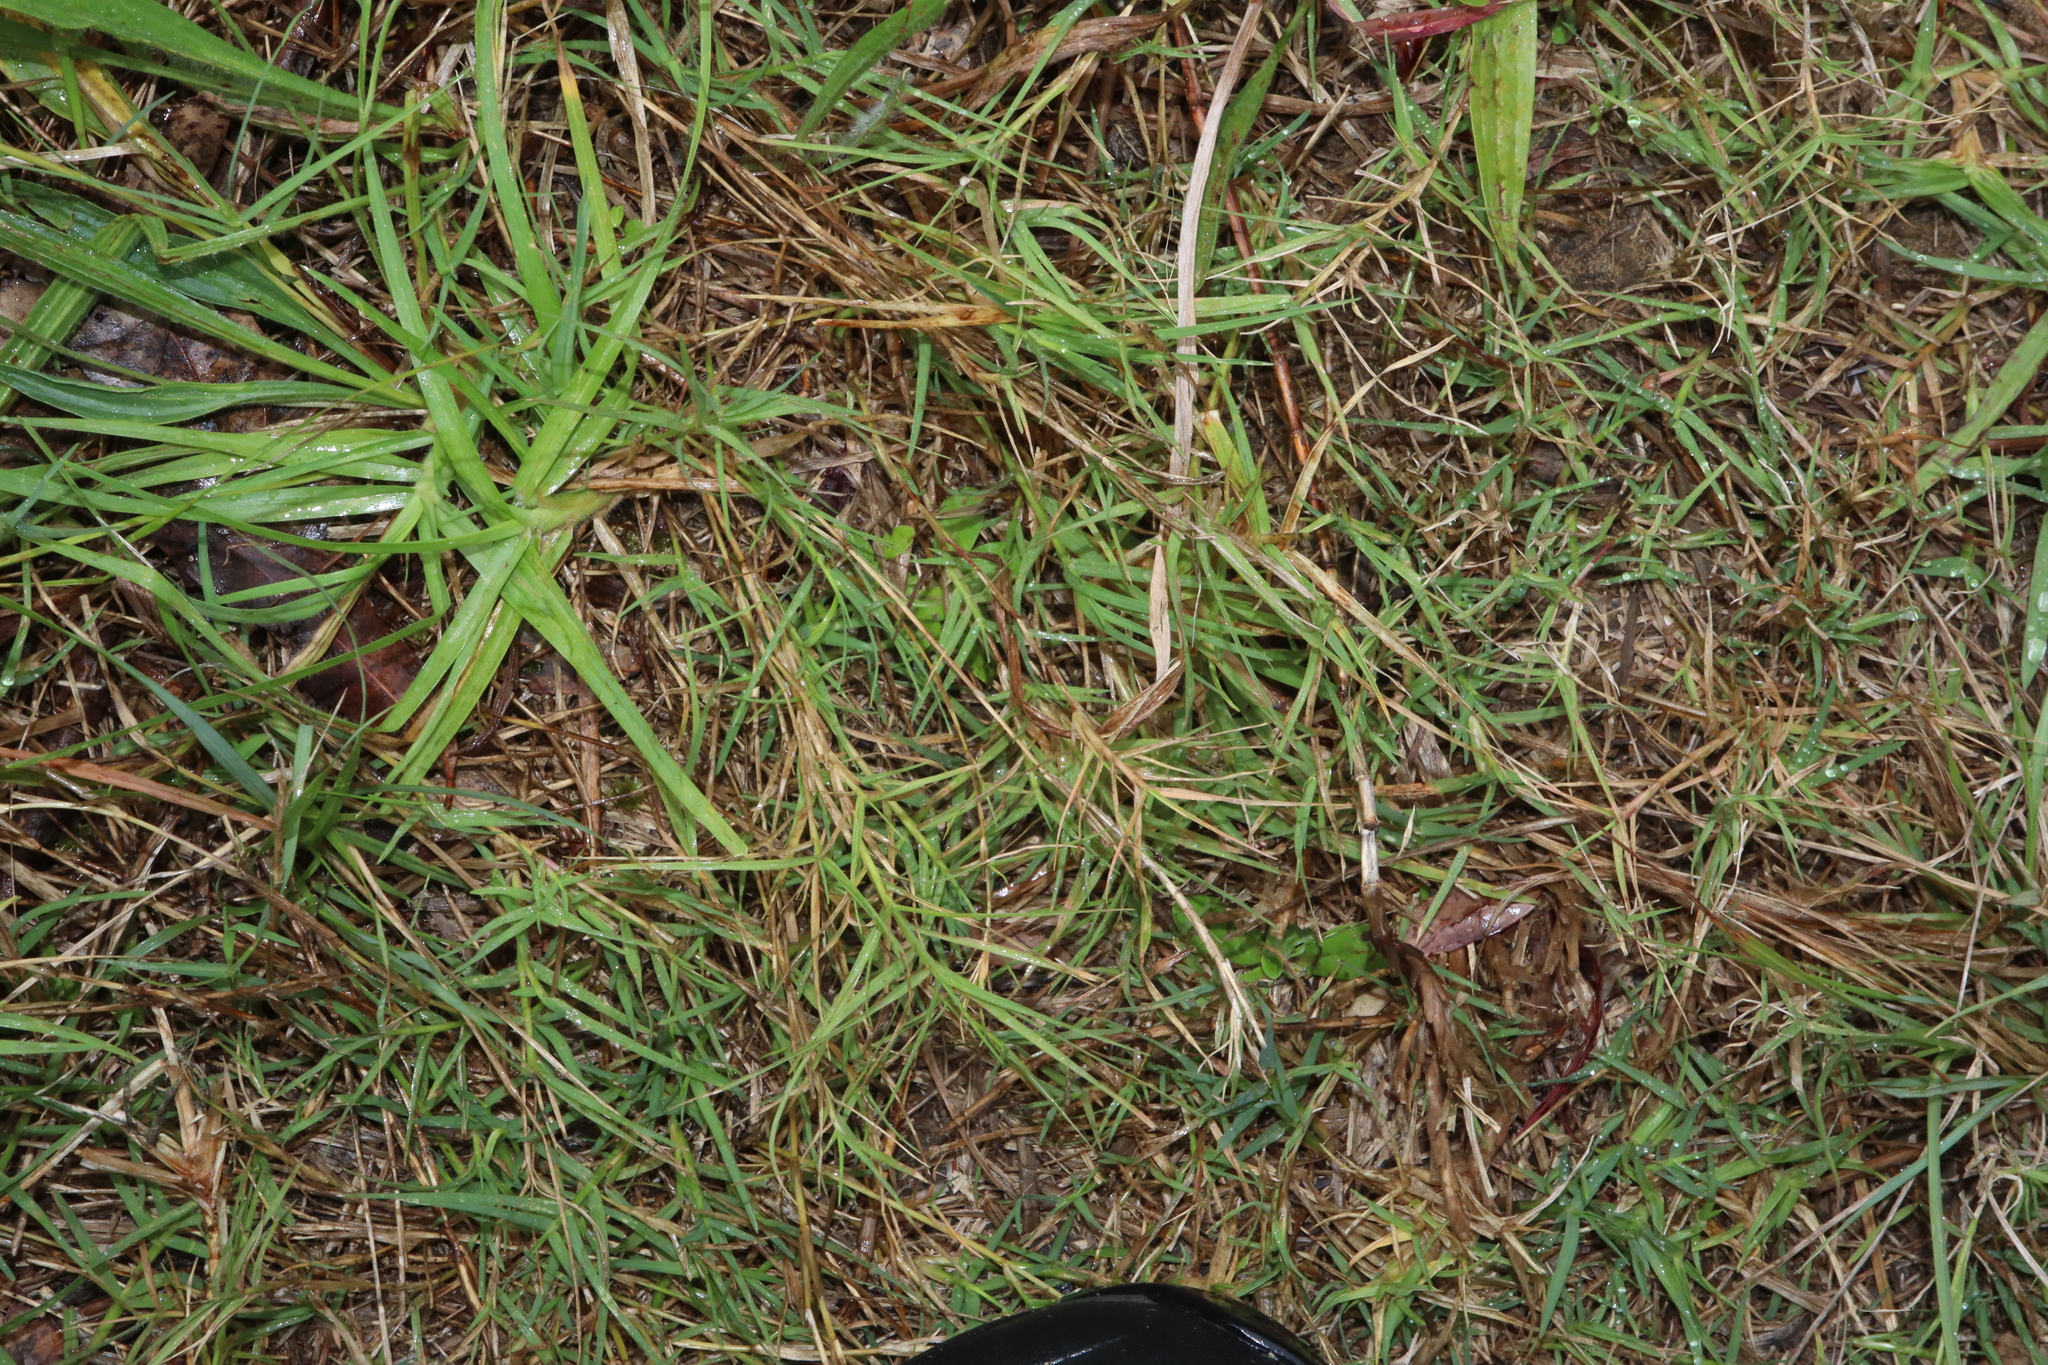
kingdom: Plantae
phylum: Tracheophyta
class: Liliopsida
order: Poales
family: Poaceae
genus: Cynodon
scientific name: Cynodon dactylon
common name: Bermuda grass
